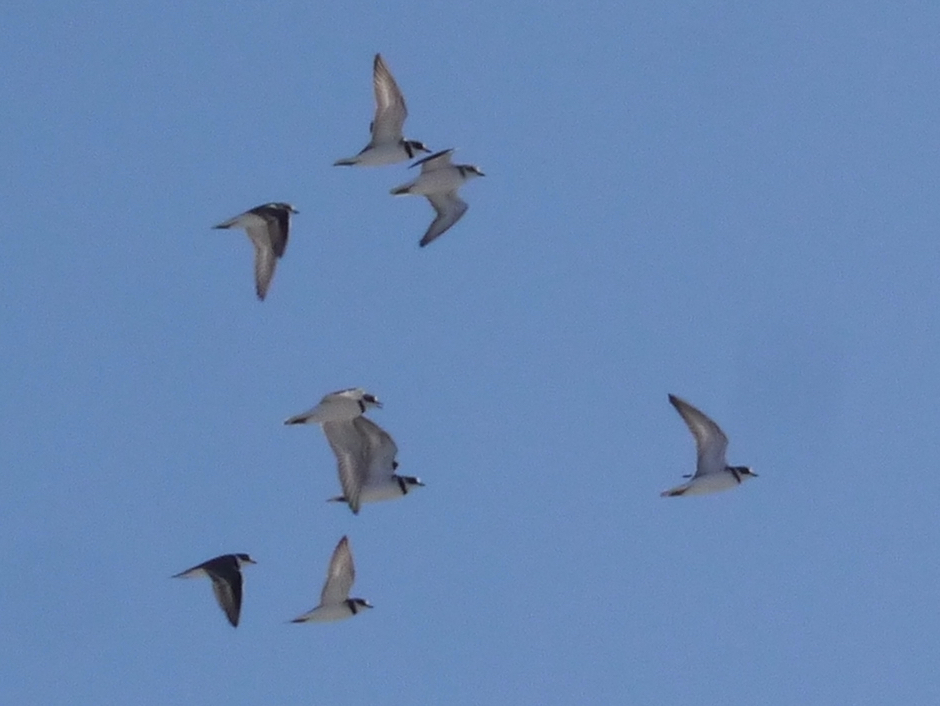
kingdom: Animalia
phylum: Chordata
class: Aves
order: Charadriiformes
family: Charadriidae
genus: Charadrius
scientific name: Charadrius semipalmatus
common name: Semipalmated plover
